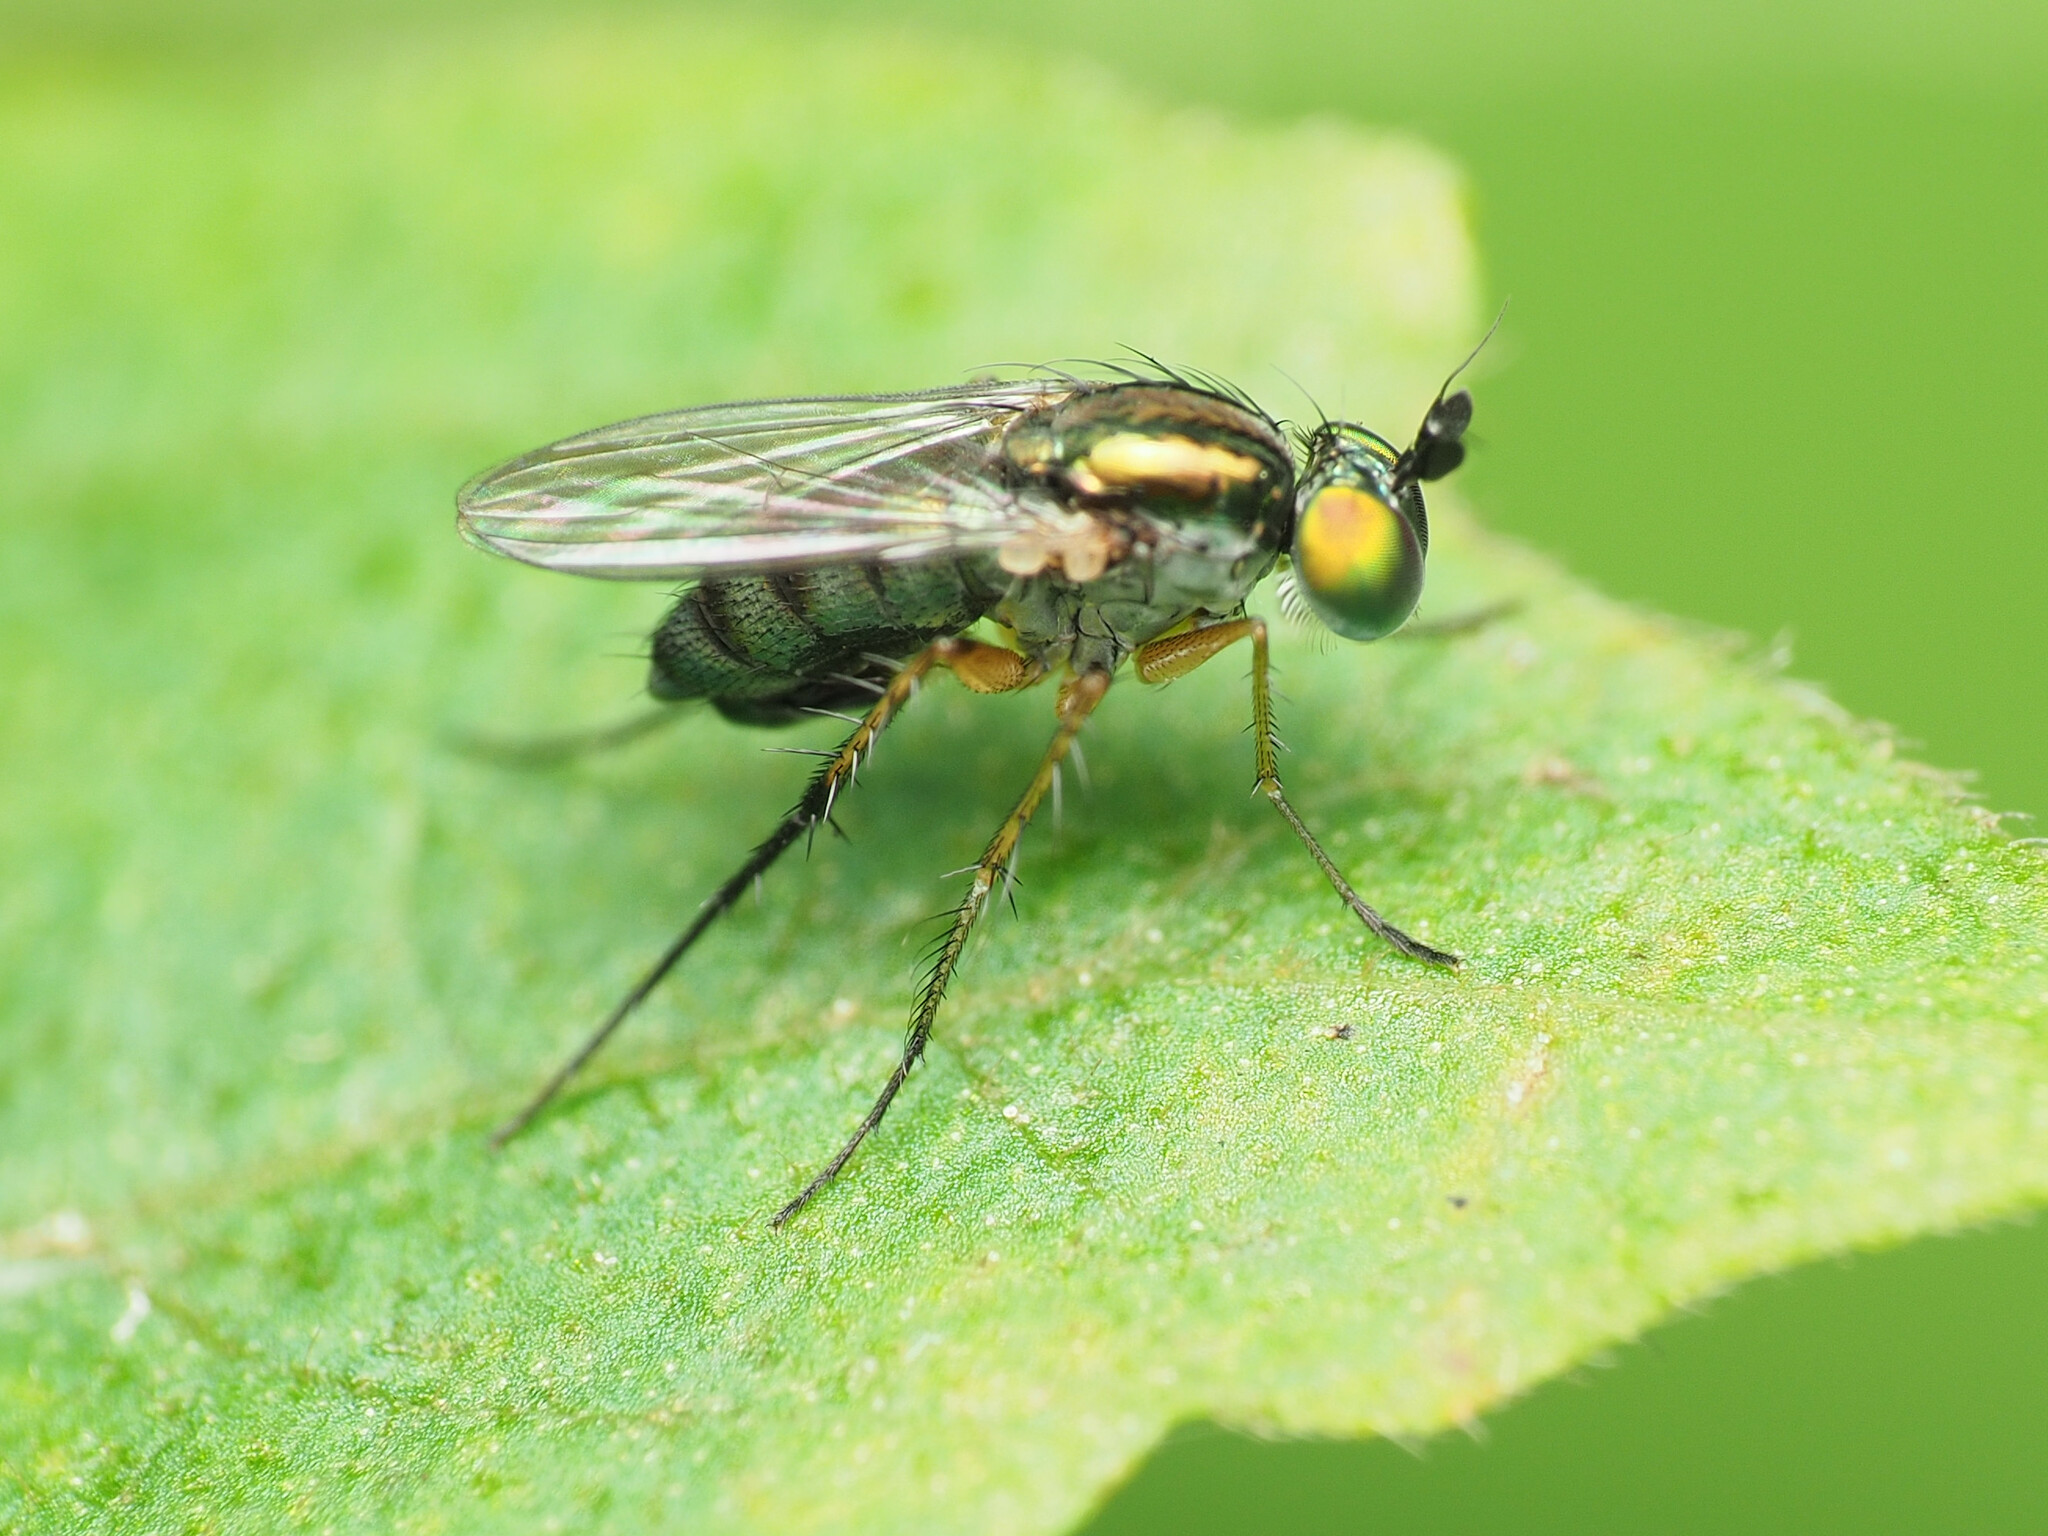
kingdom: Animalia
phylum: Arthropoda
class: Insecta
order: Diptera
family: Dolichopodidae
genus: Dolichopus
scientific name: Dolichopus comatus
